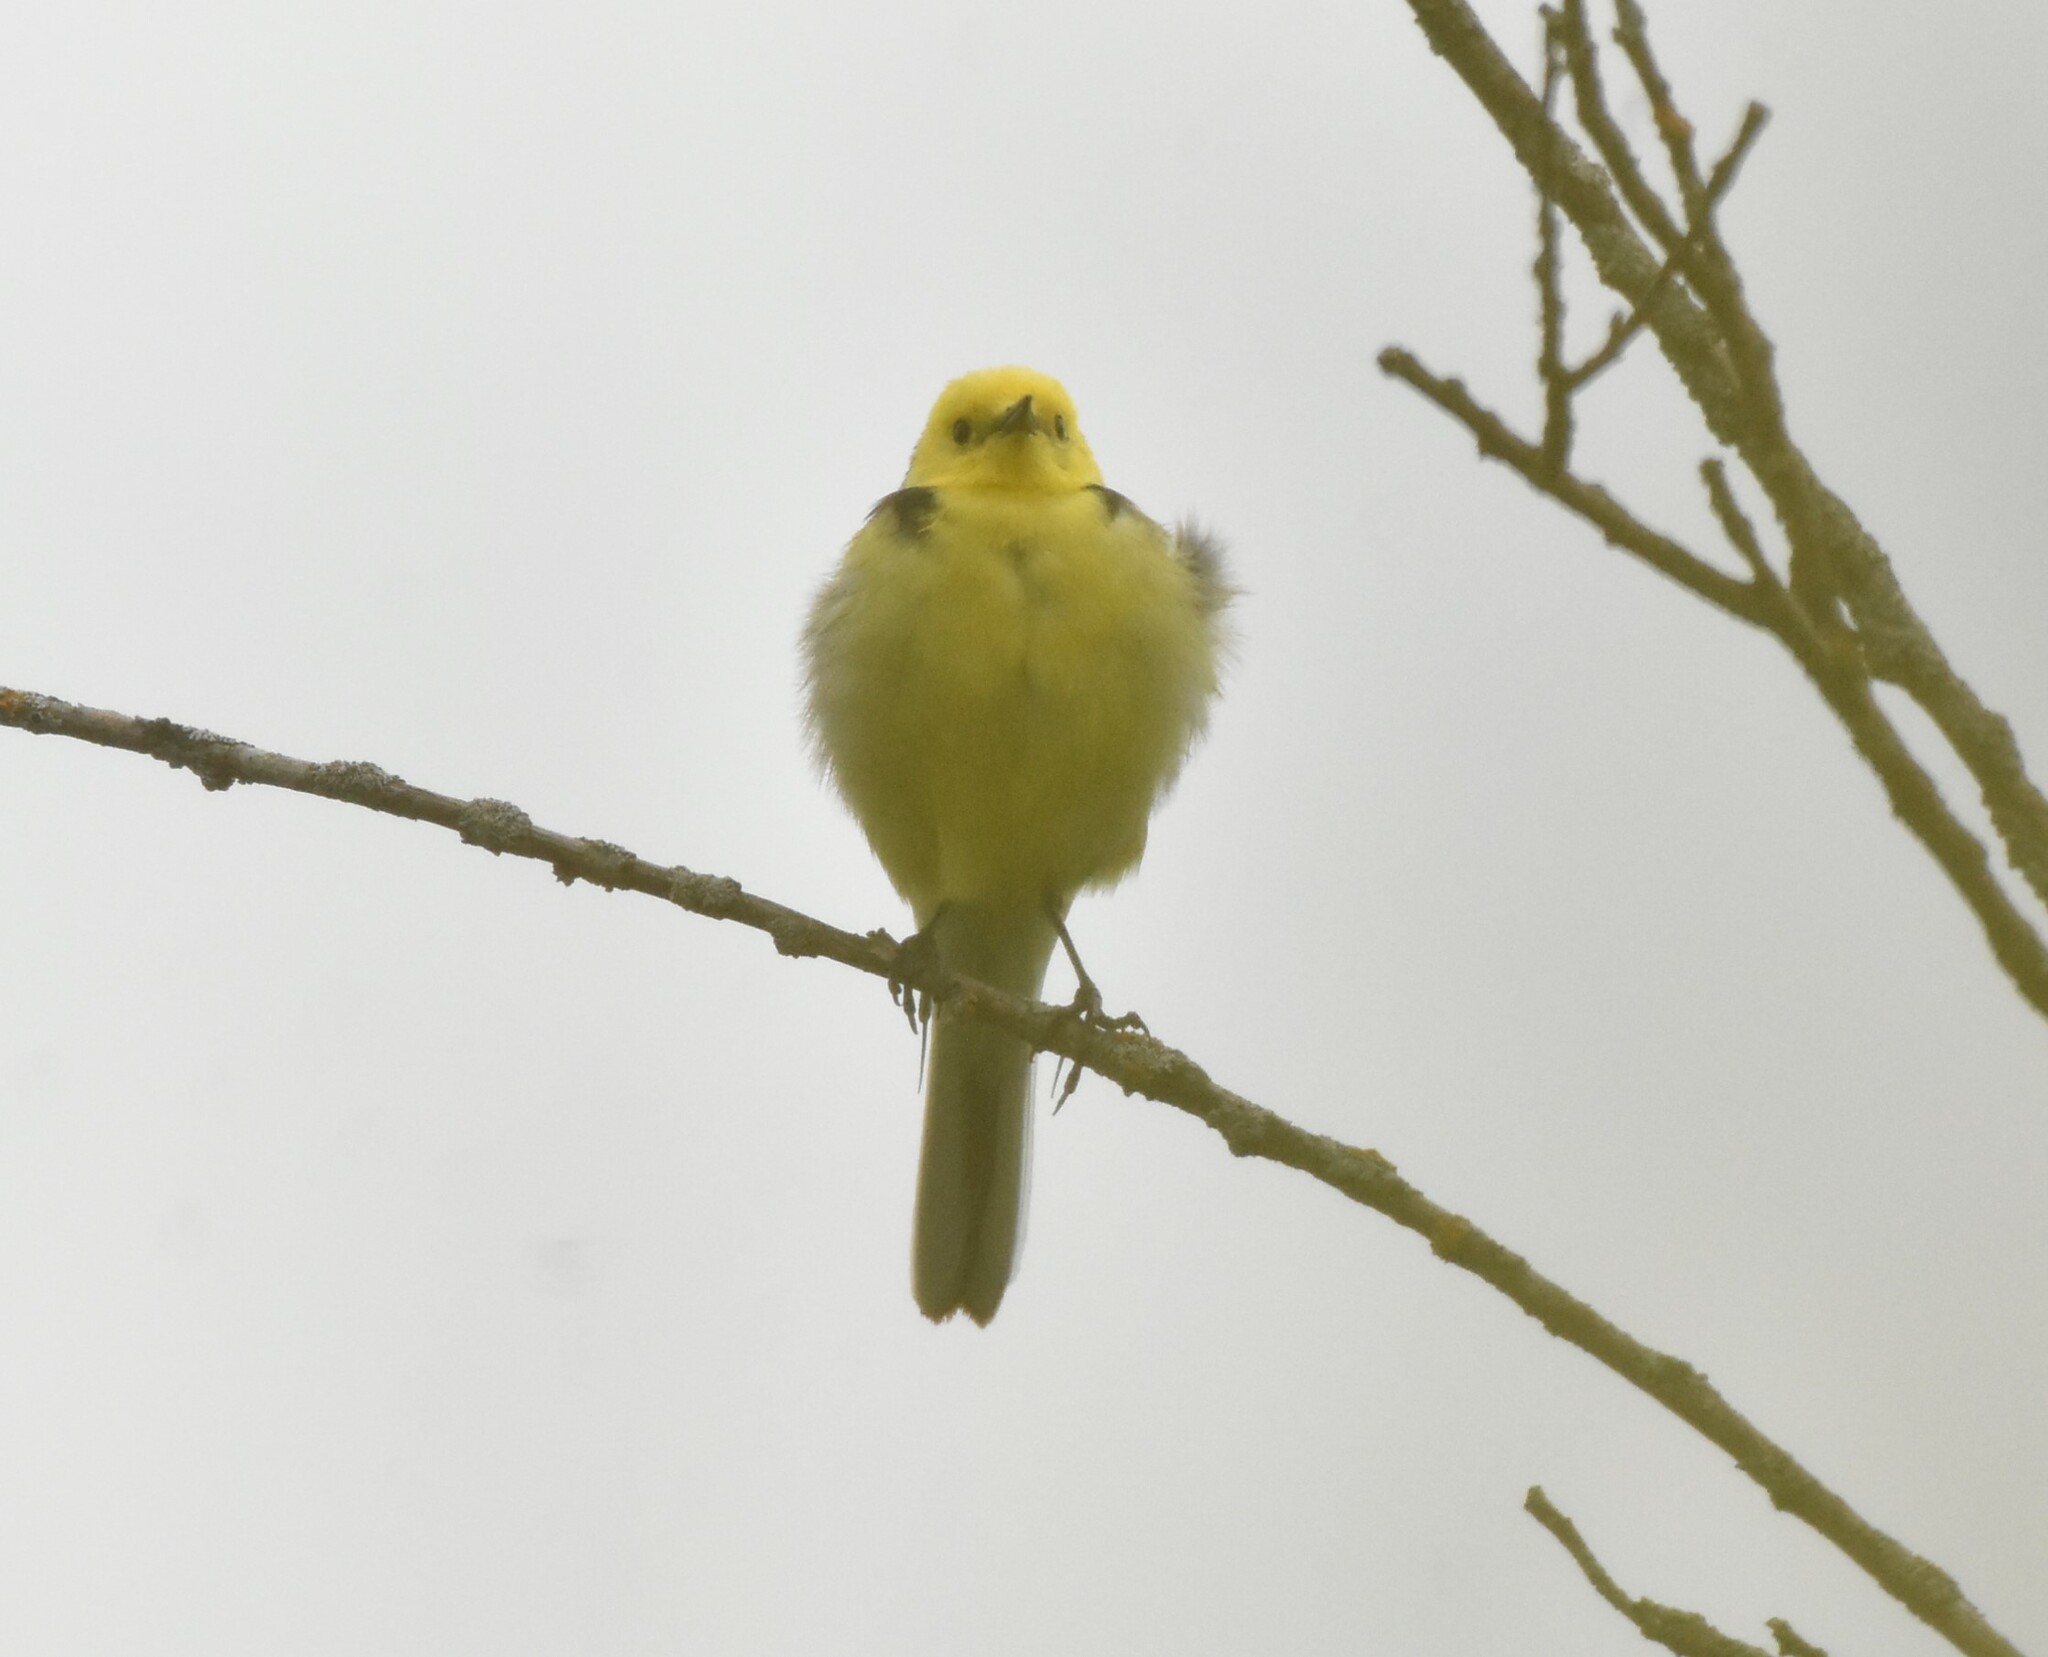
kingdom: Animalia
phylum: Chordata
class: Aves
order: Passeriformes
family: Motacillidae
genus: Motacilla
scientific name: Motacilla citreola
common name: Citrine wagtail
